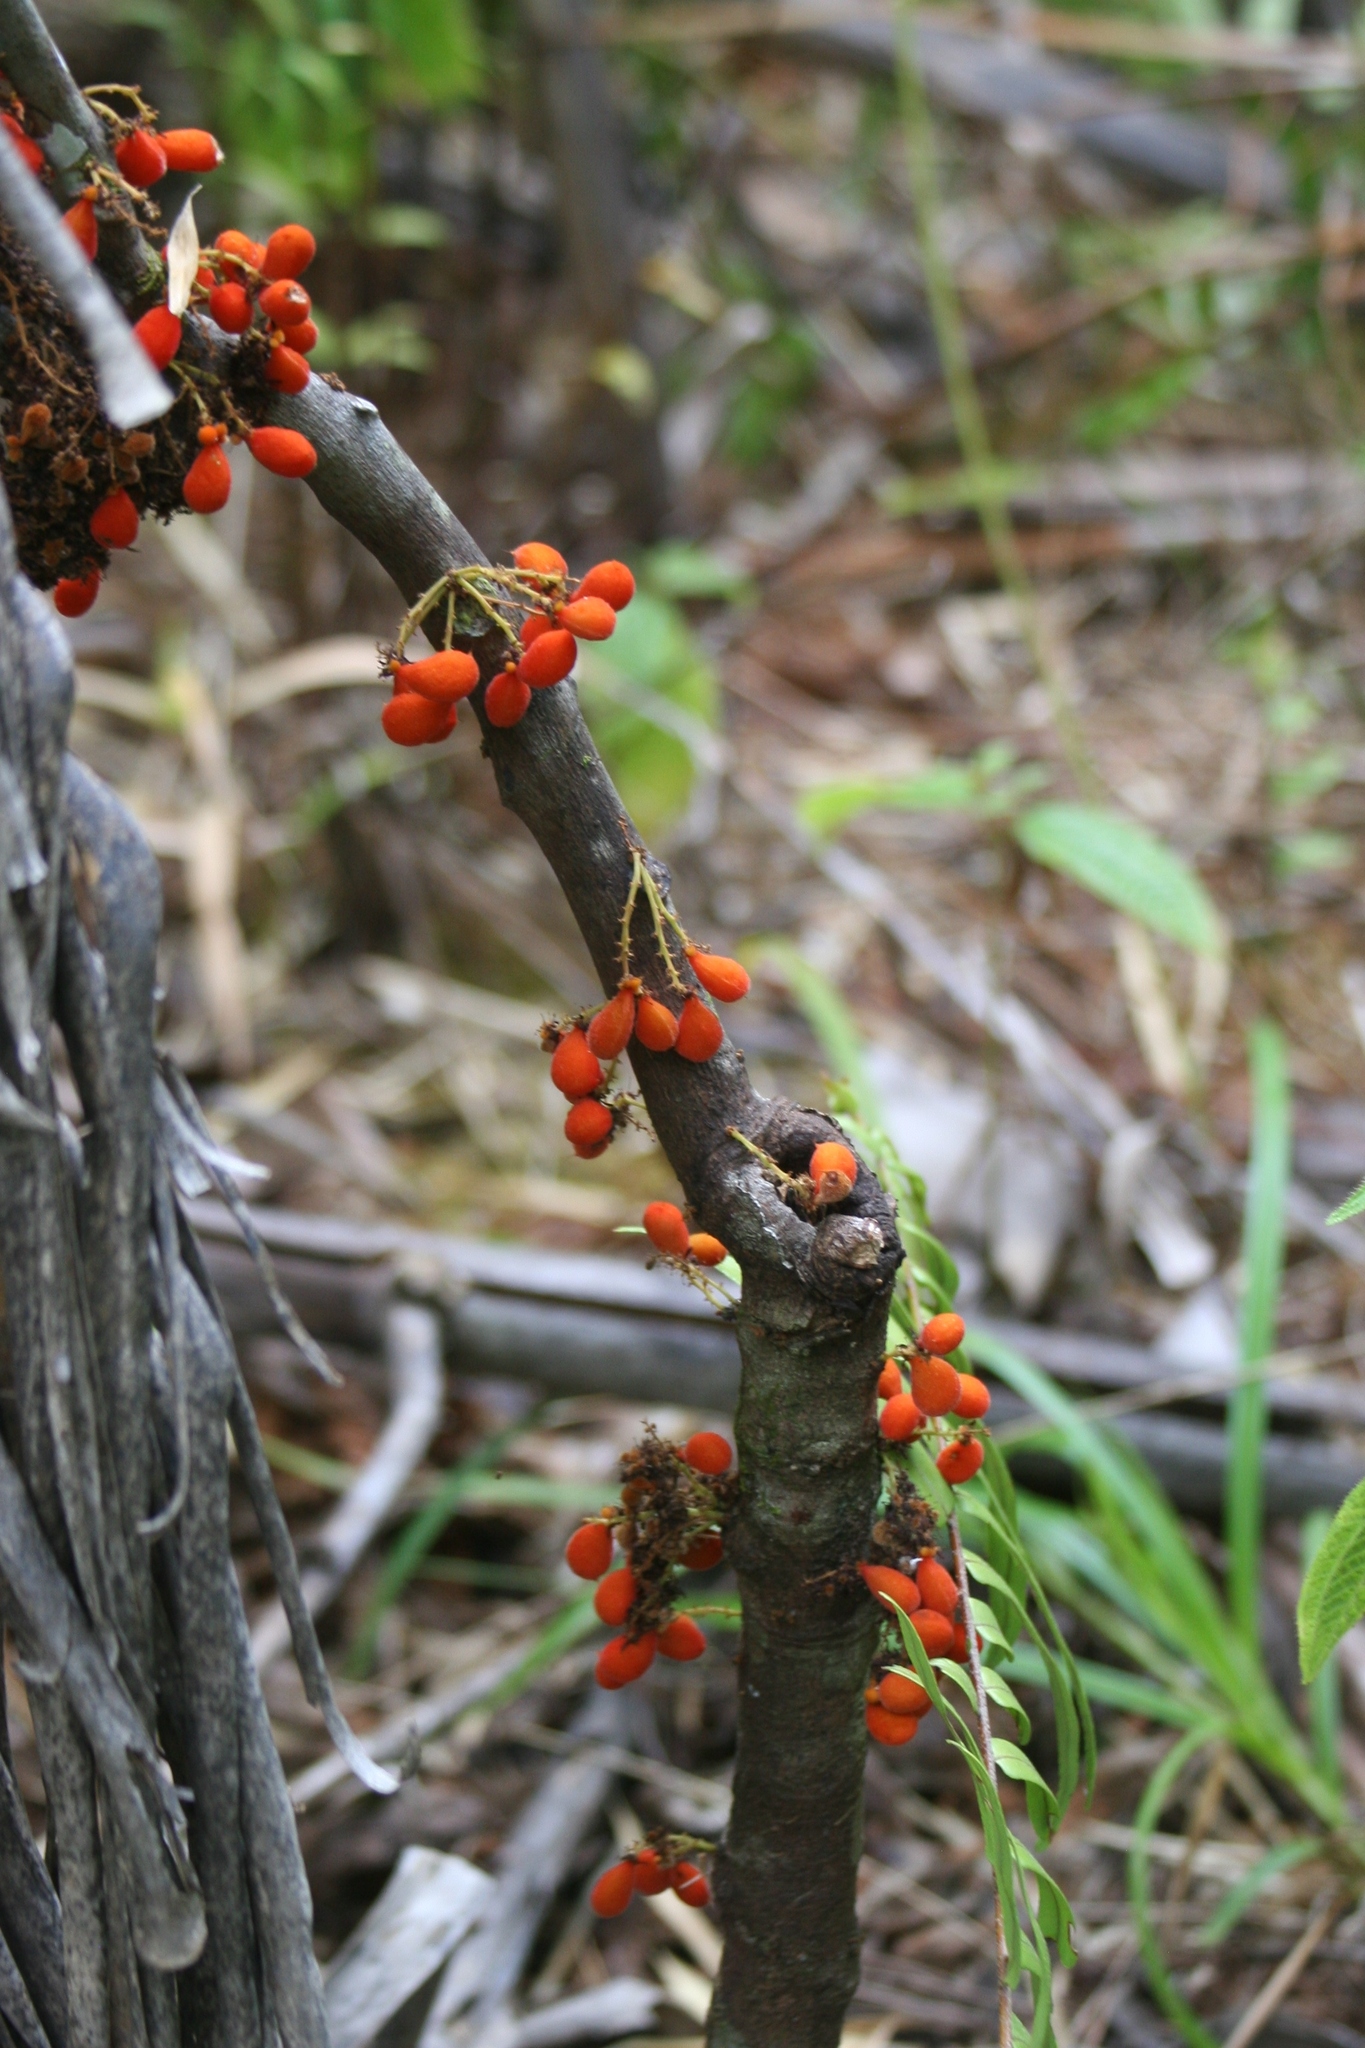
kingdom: Plantae
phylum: Tracheophyta
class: Magnoliopsida
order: Oxalidales
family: Connaraceae
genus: Cnestis
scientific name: Cnestis polyphylla
